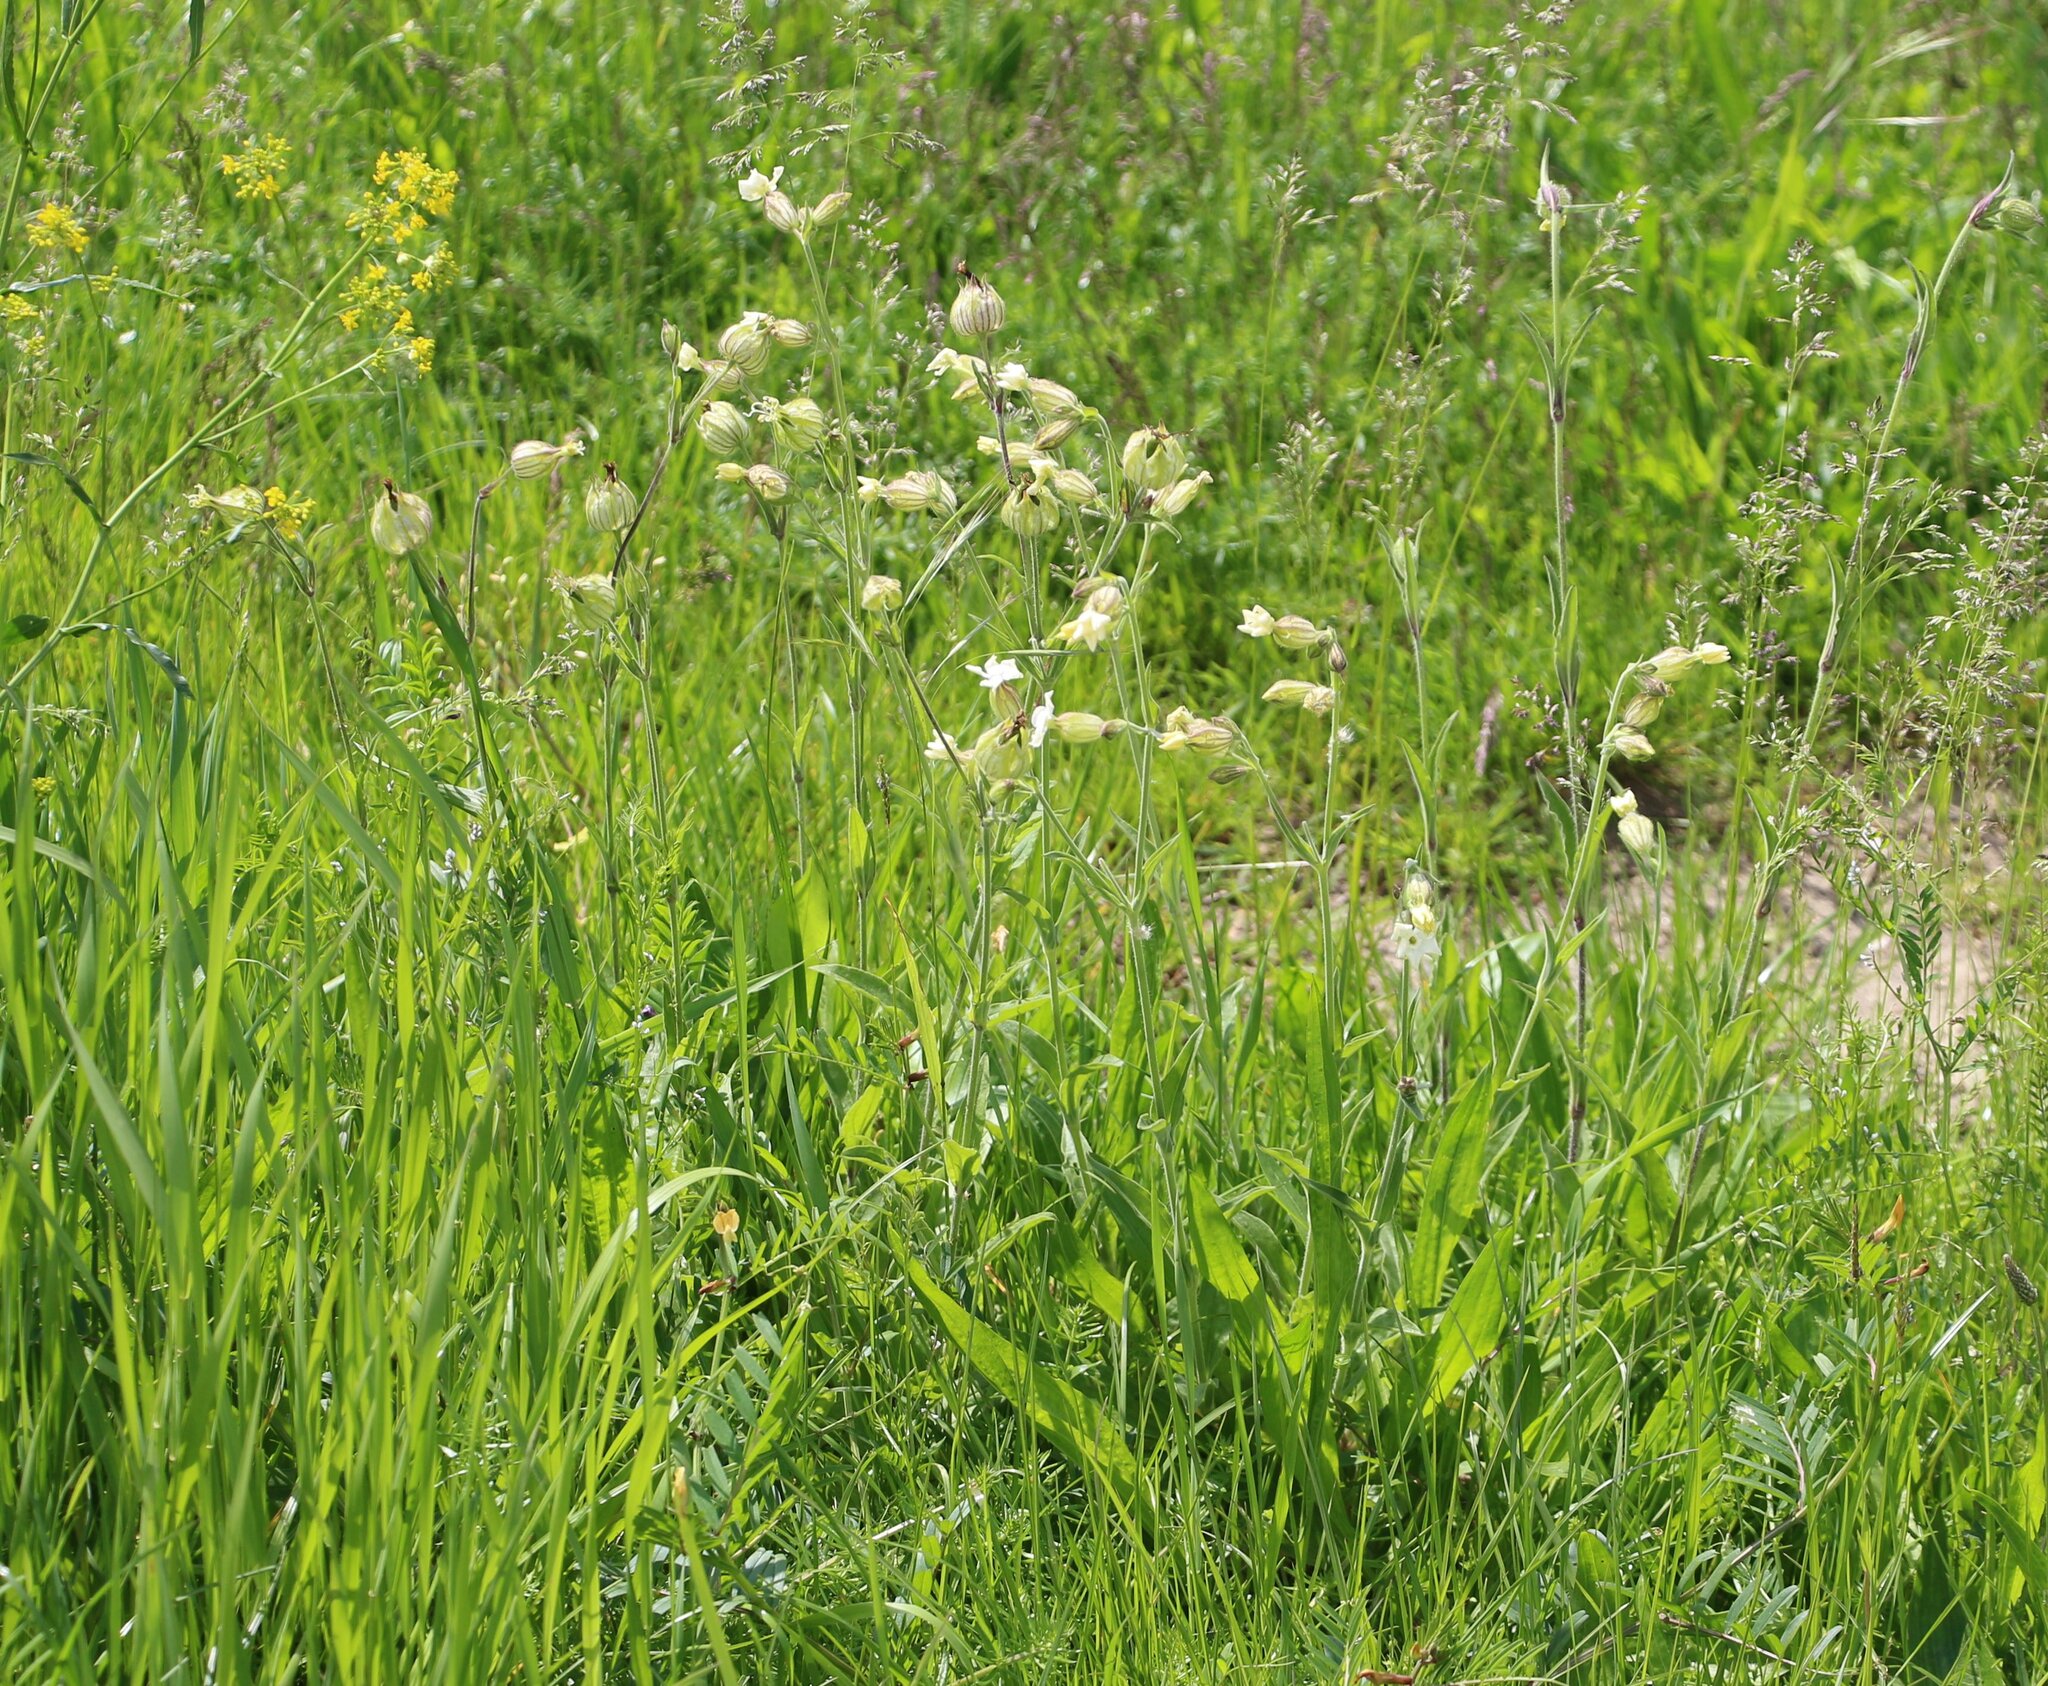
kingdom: Plantae
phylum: Tracheophyta
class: Magnoliopsida
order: Caryophyllales
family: Caryophyllaceae
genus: Silene
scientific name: Silene latifolia
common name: White campion
